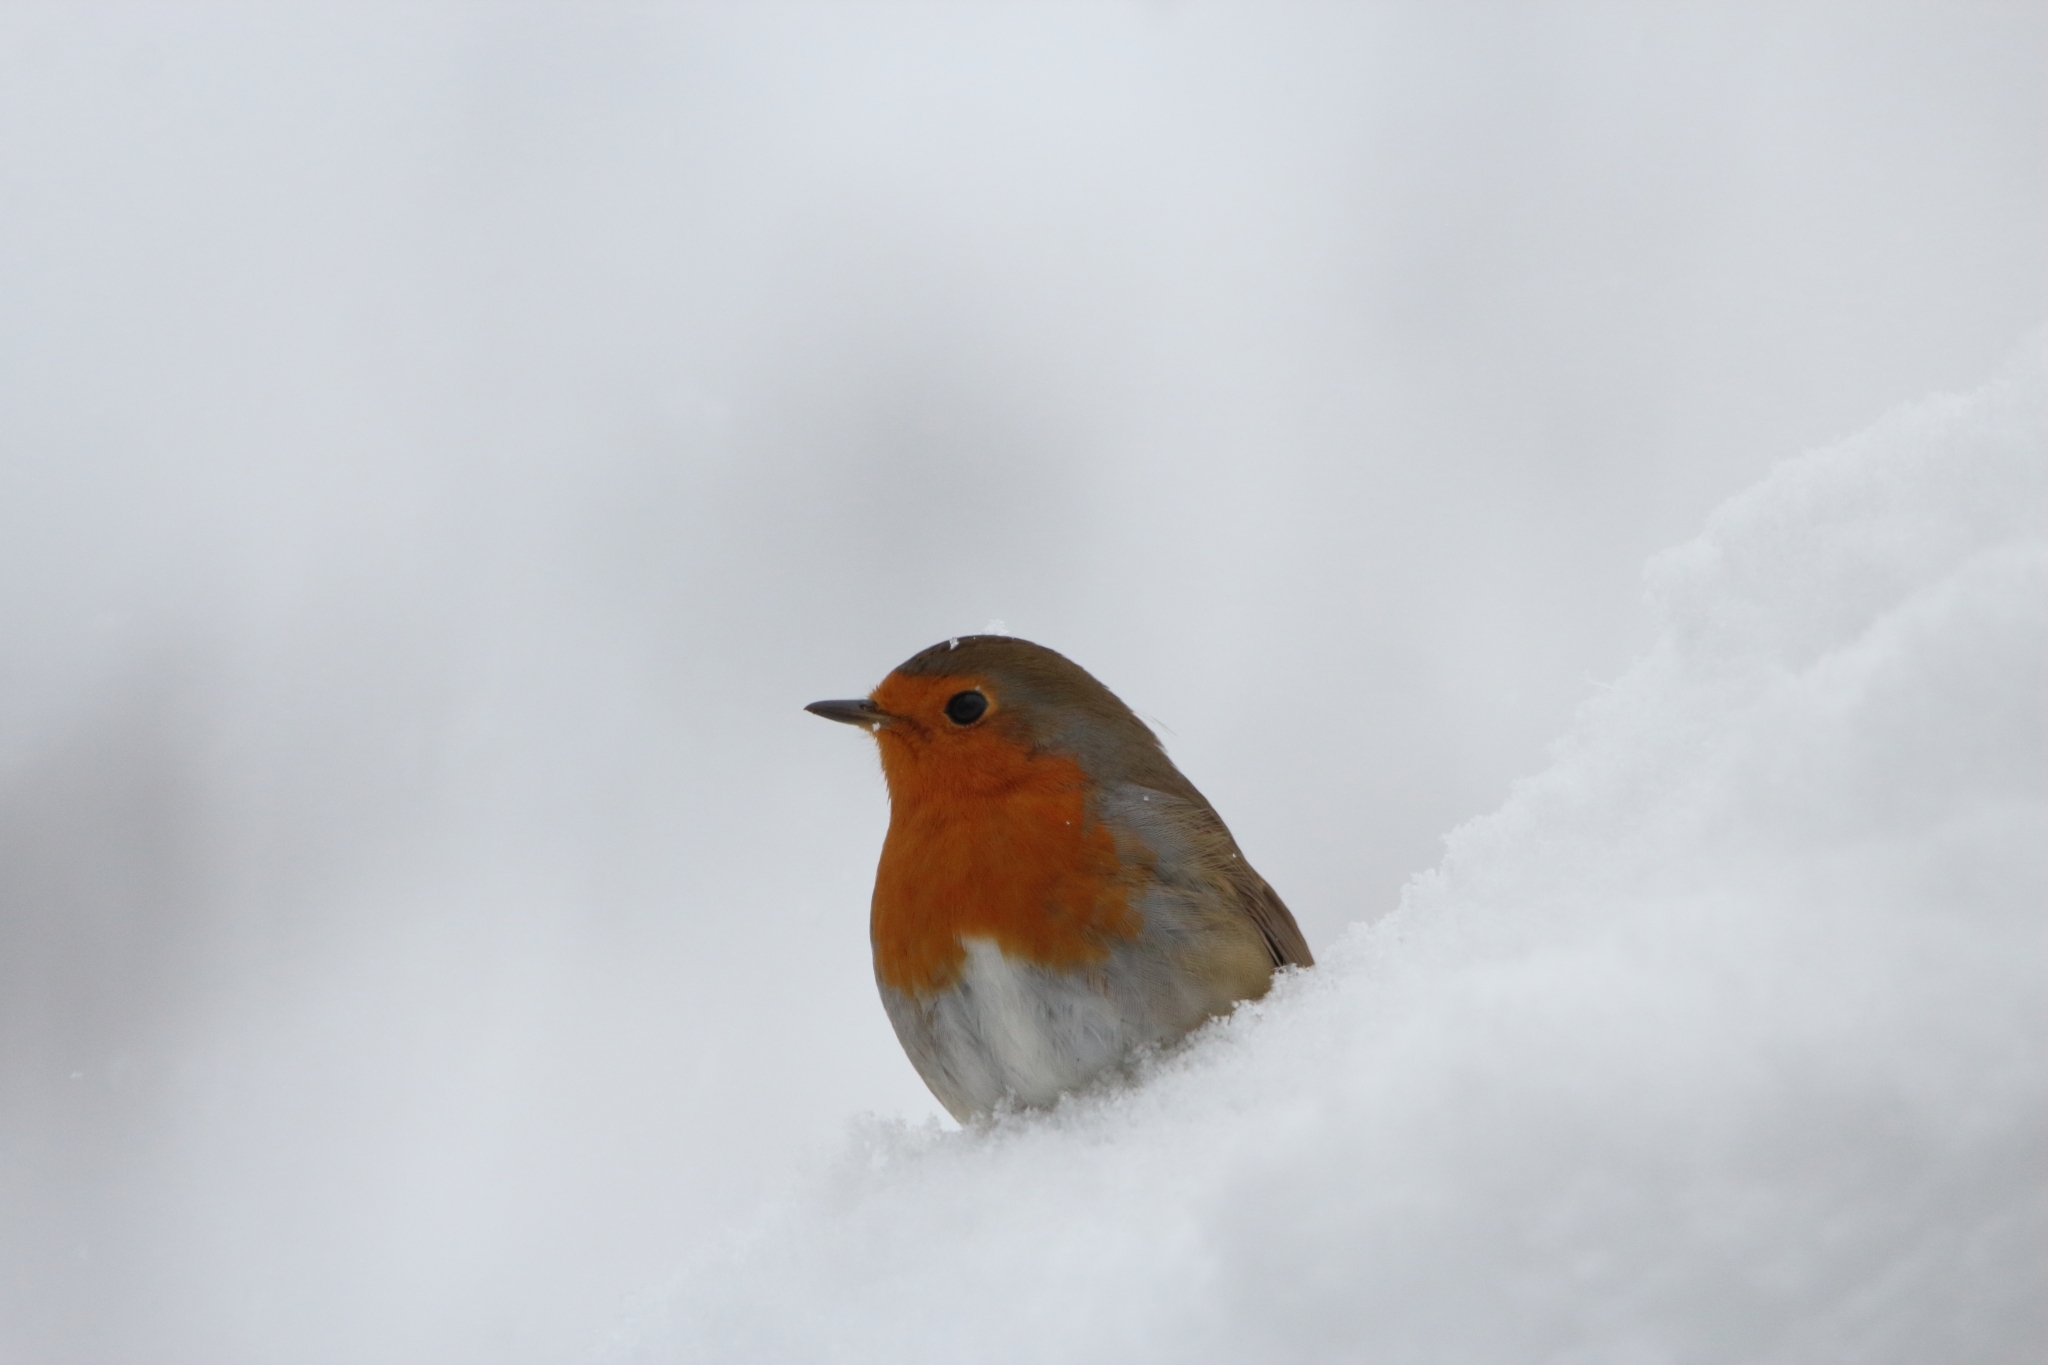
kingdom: Animalia
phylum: Chordata
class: Aves
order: Passeriformes
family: Muscicapidae
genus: Erithacus
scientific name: Erithacus rubecula
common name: European robin
